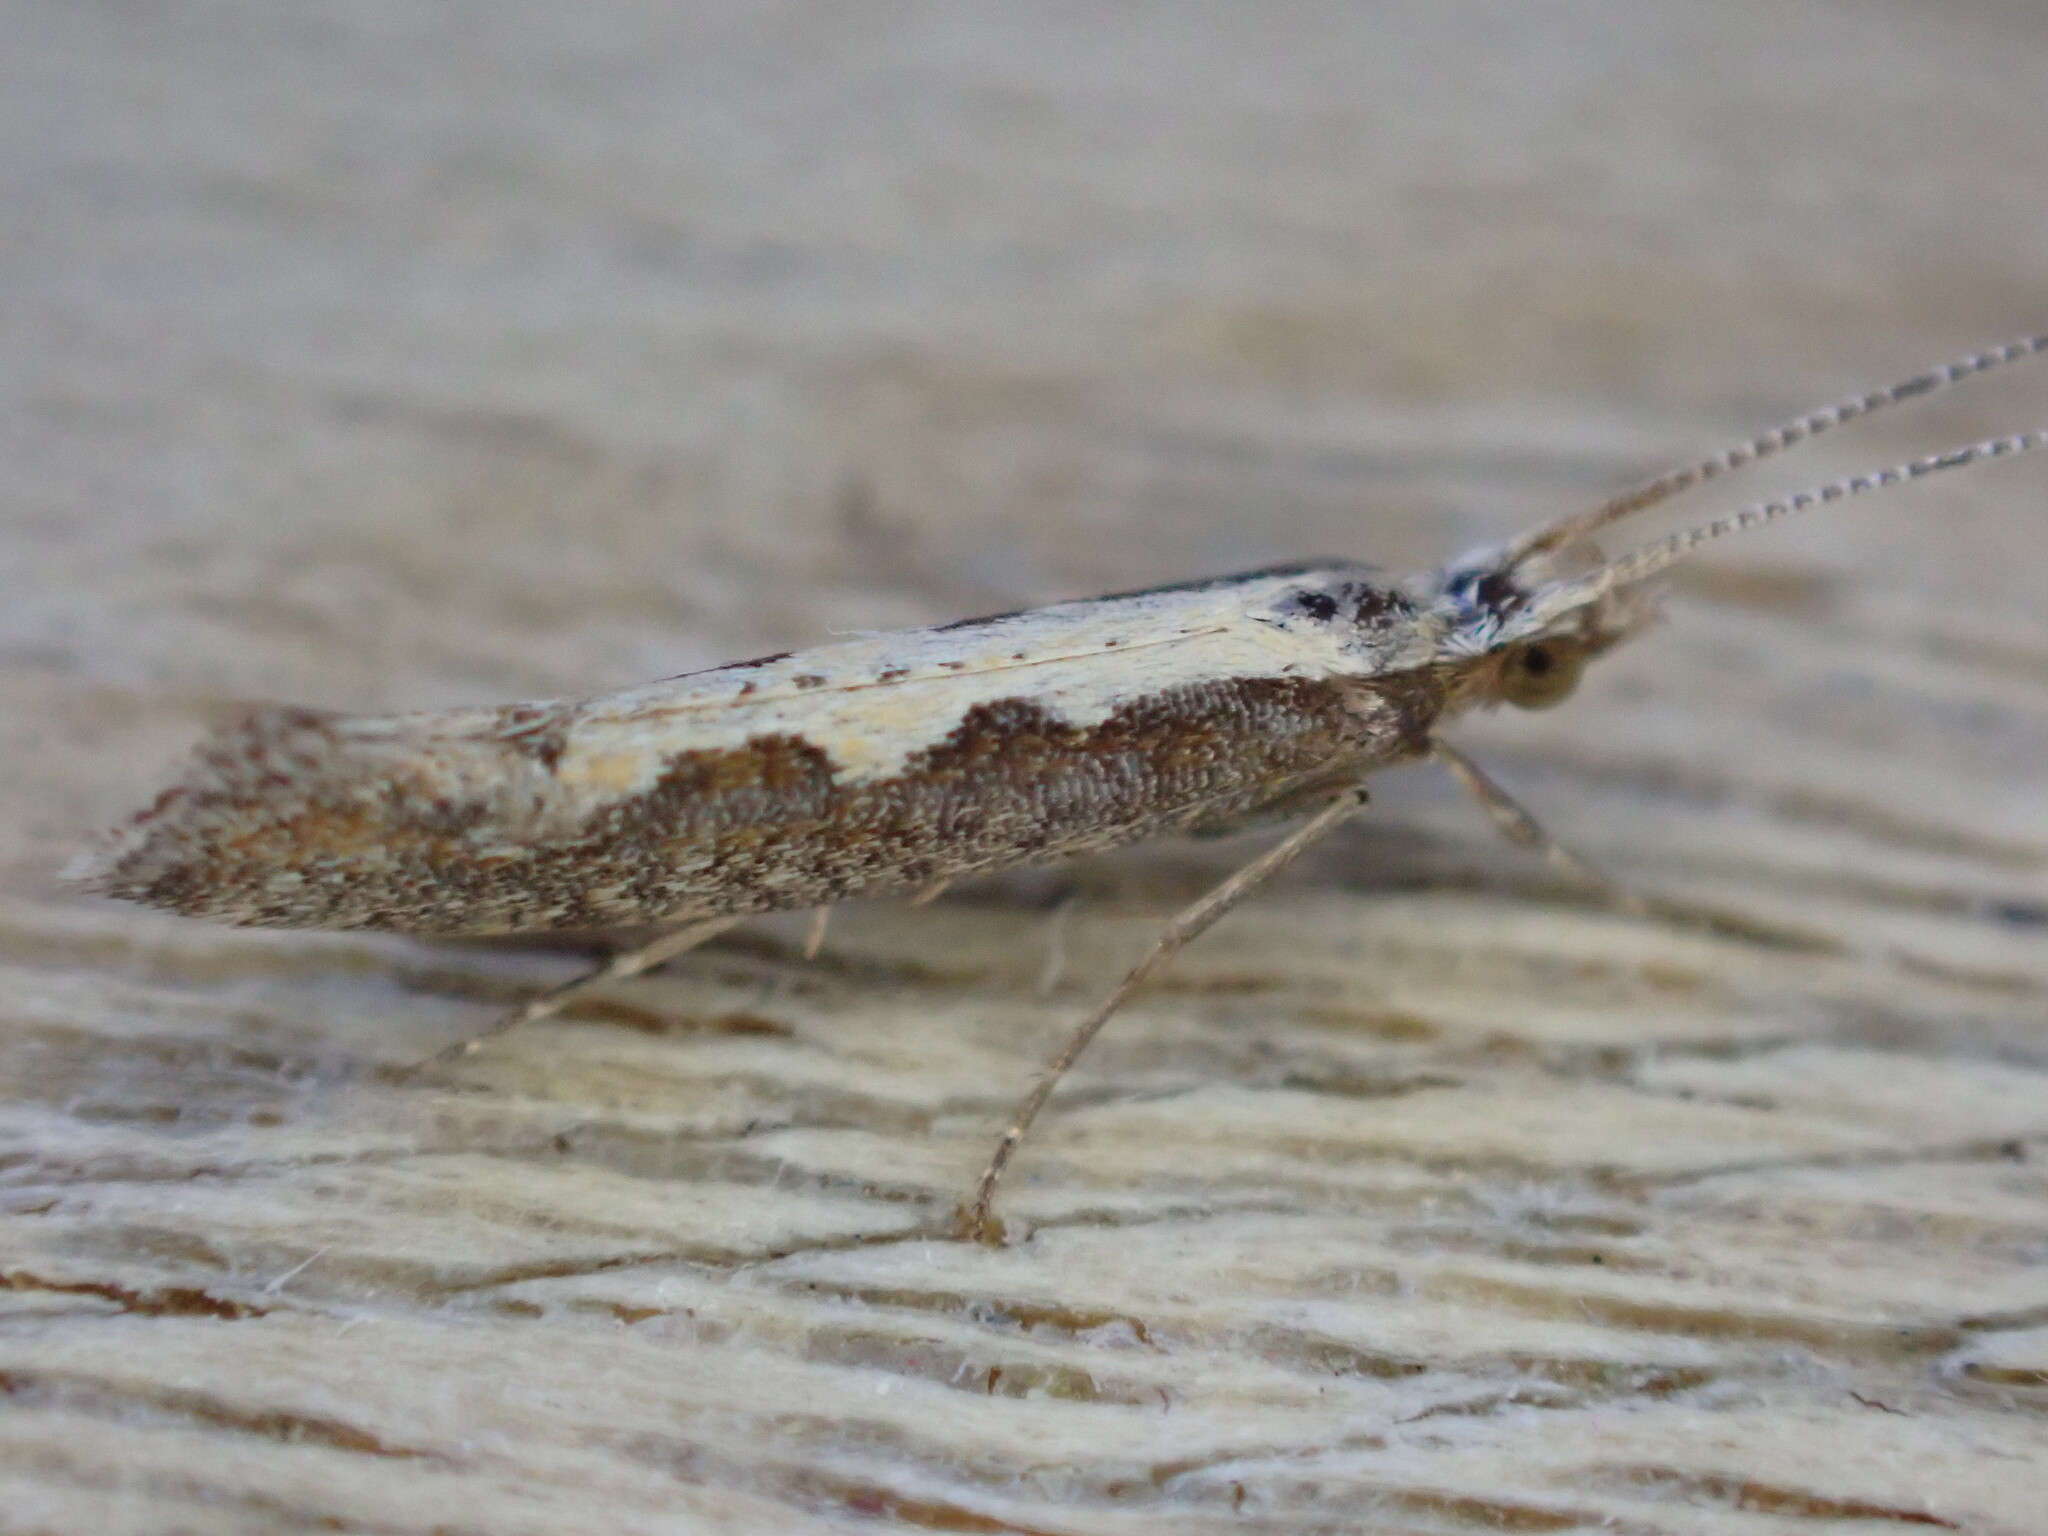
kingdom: Animalia
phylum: Arthropoda
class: Insecta
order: Lepidoptera
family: Plutellidae
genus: Plutella
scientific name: Plutella xylostella
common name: Diamond-back moth
